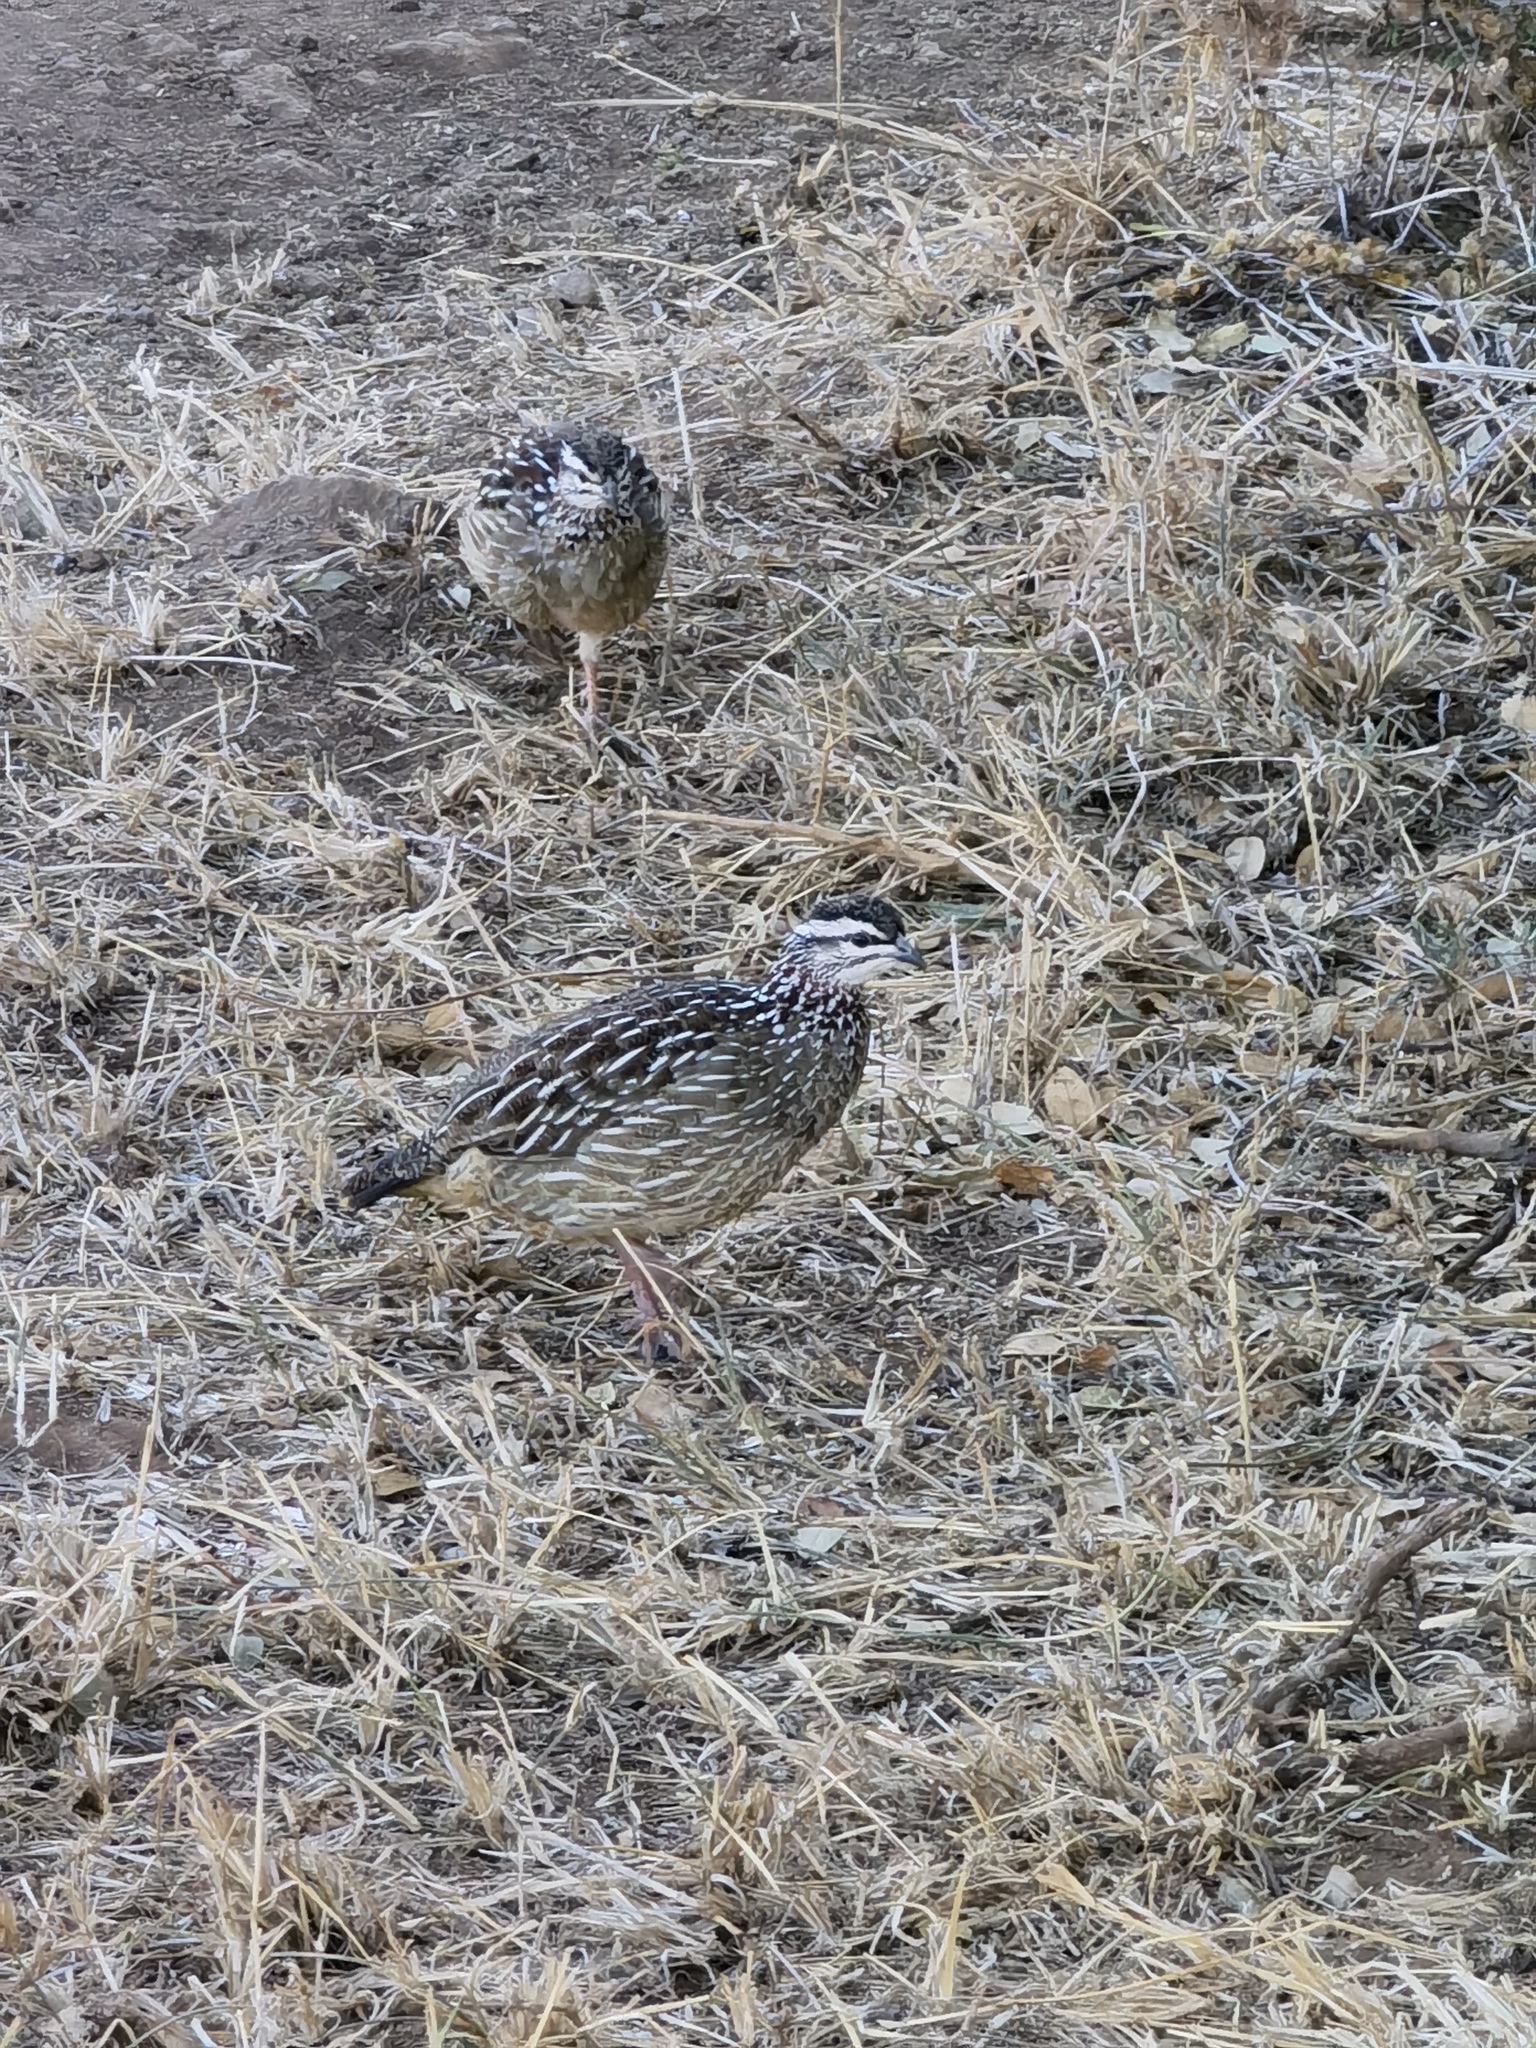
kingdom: Animalia
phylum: Chordata
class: Aves
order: Galliformes
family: Phasianidae
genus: Ortygornis
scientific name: Ortygornis sephaena
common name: Crested francolin
